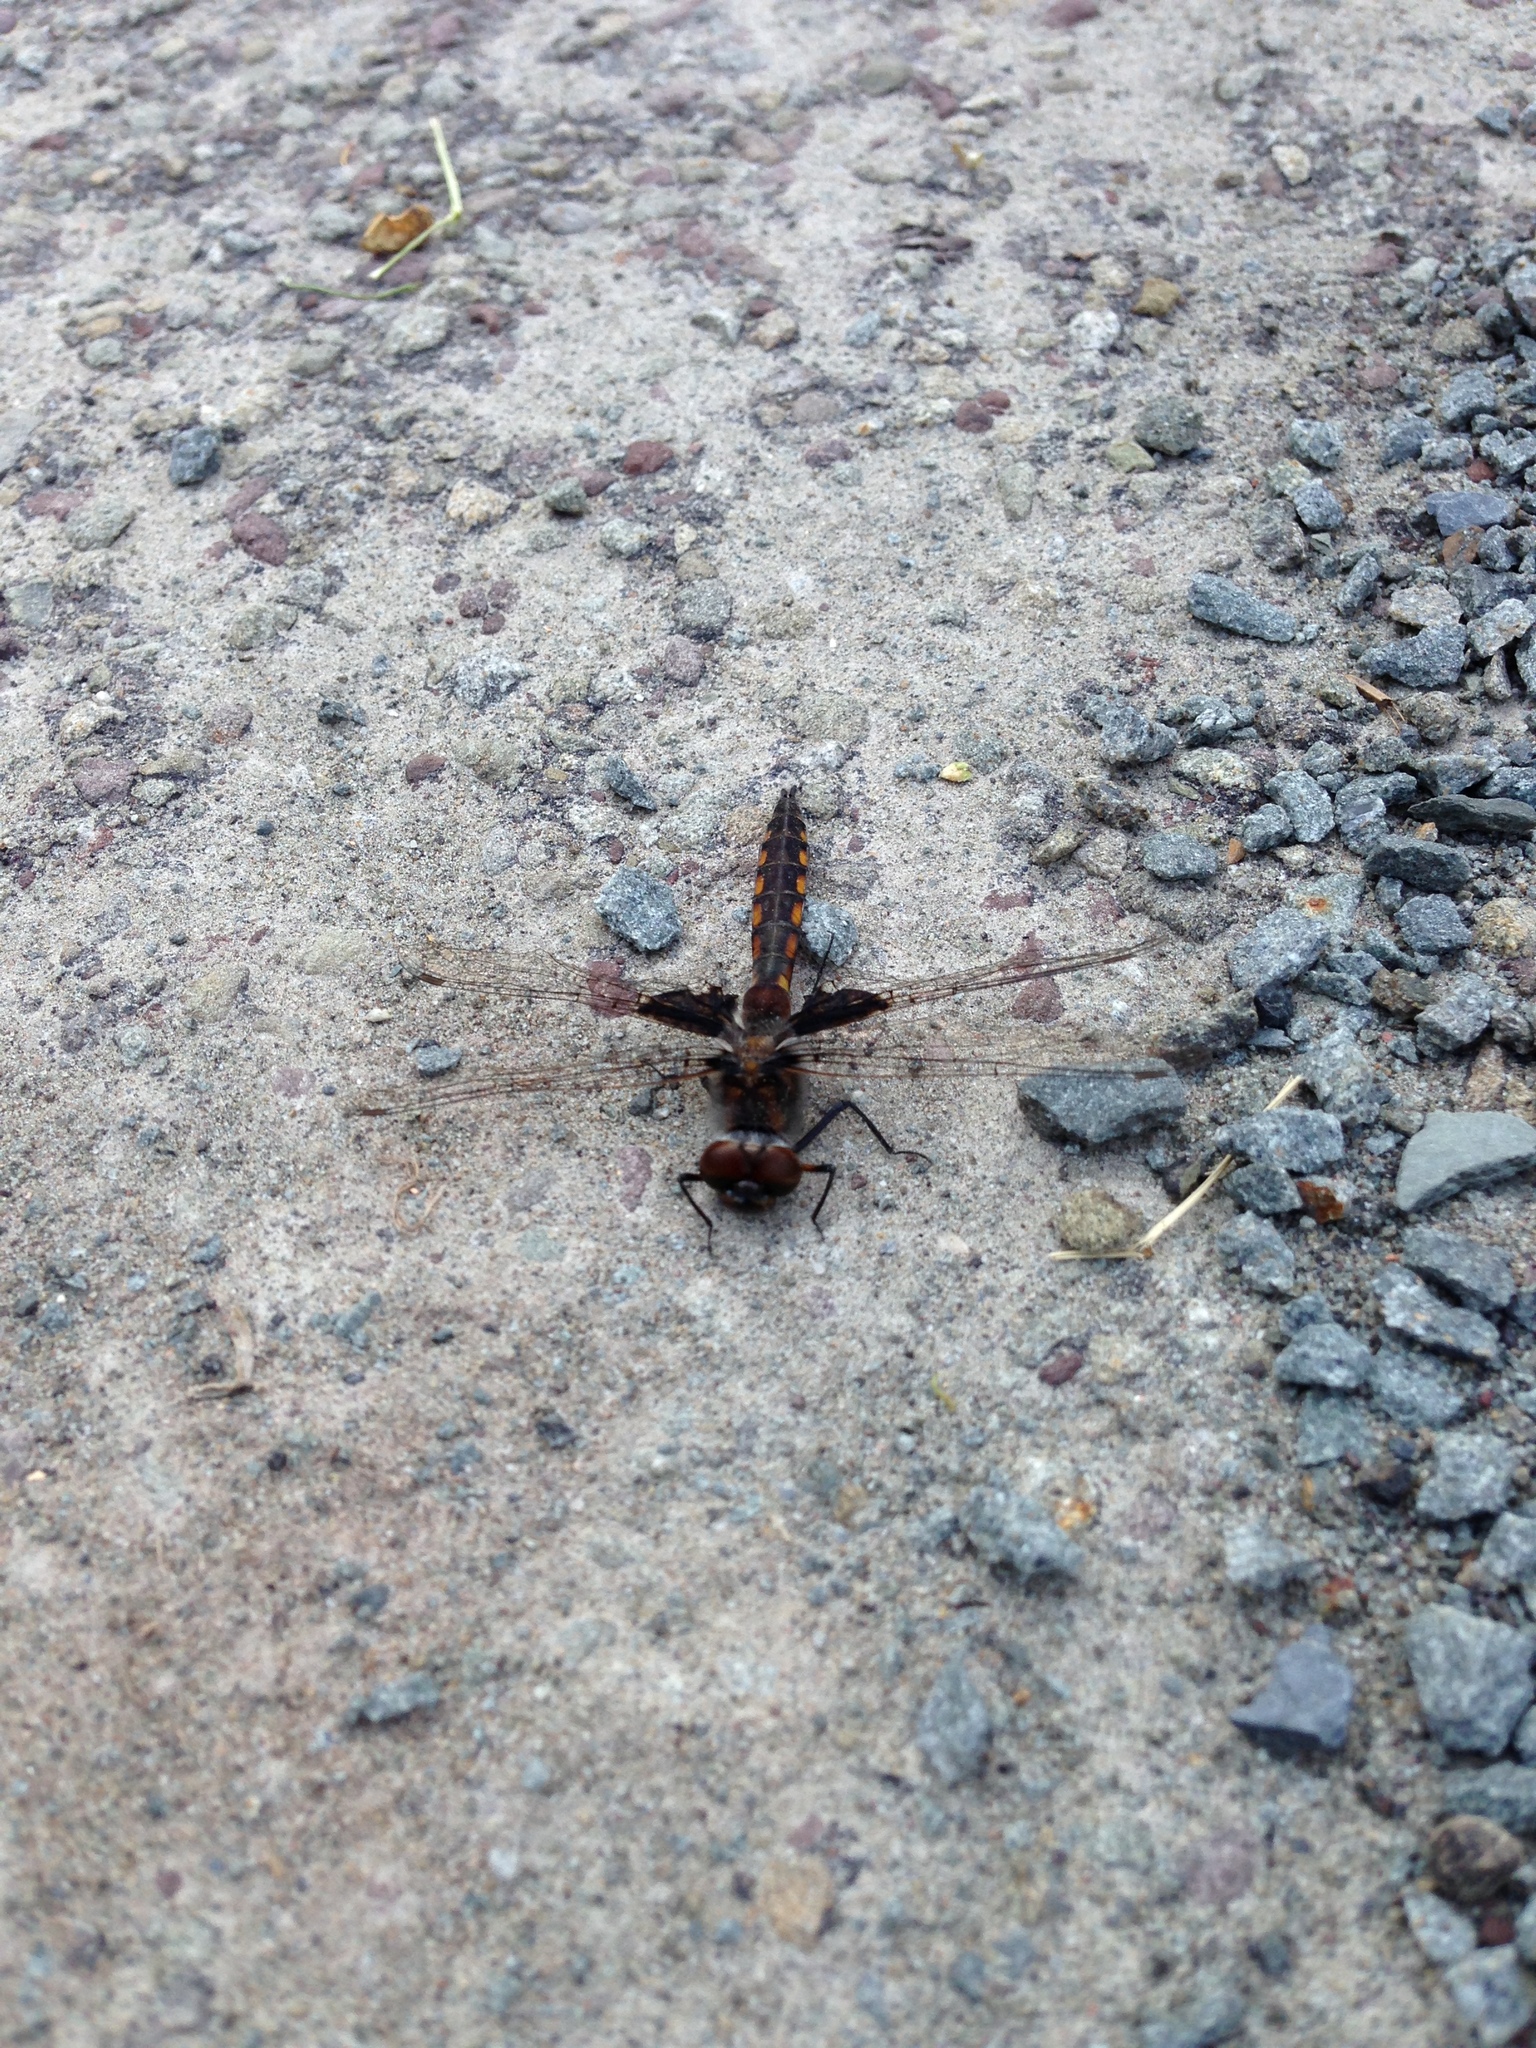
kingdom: Animalia
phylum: Arthropoda
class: Insecta
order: Odonata
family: Corduliidae
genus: Epitheca
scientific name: Epitheca cynosura
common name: Common baskettail
